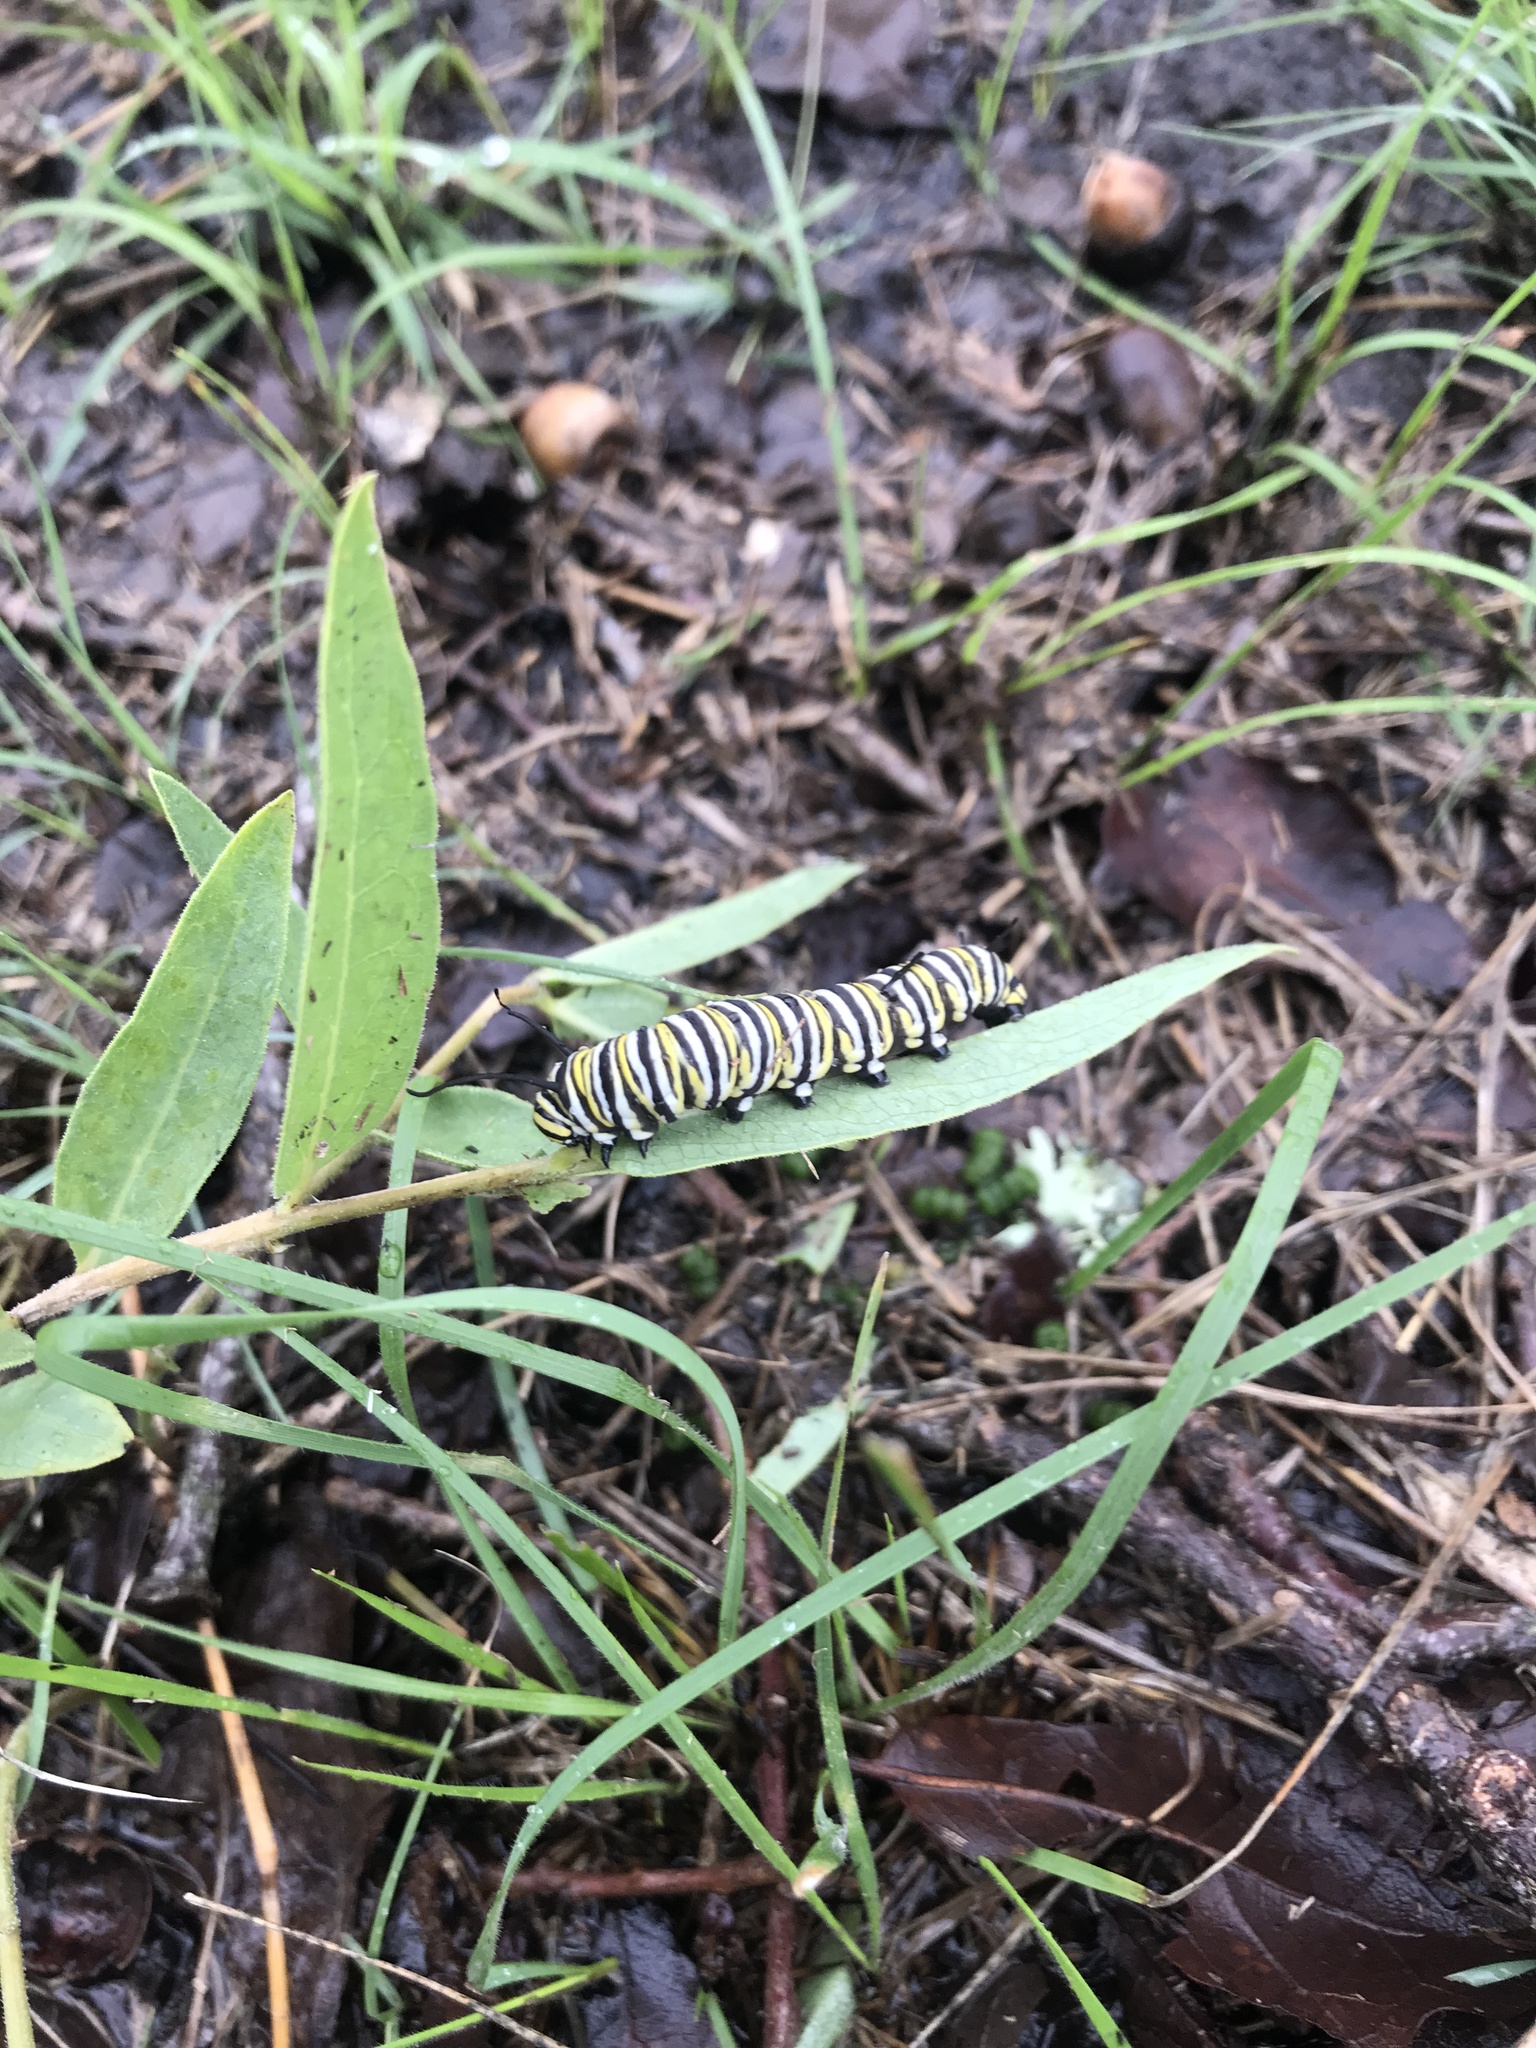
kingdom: Animalia
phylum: Arthropoda
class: Insecta
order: Lepidoptera
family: Nymphalidae
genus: Danaus
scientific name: Danaus plexippus
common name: Monarch
